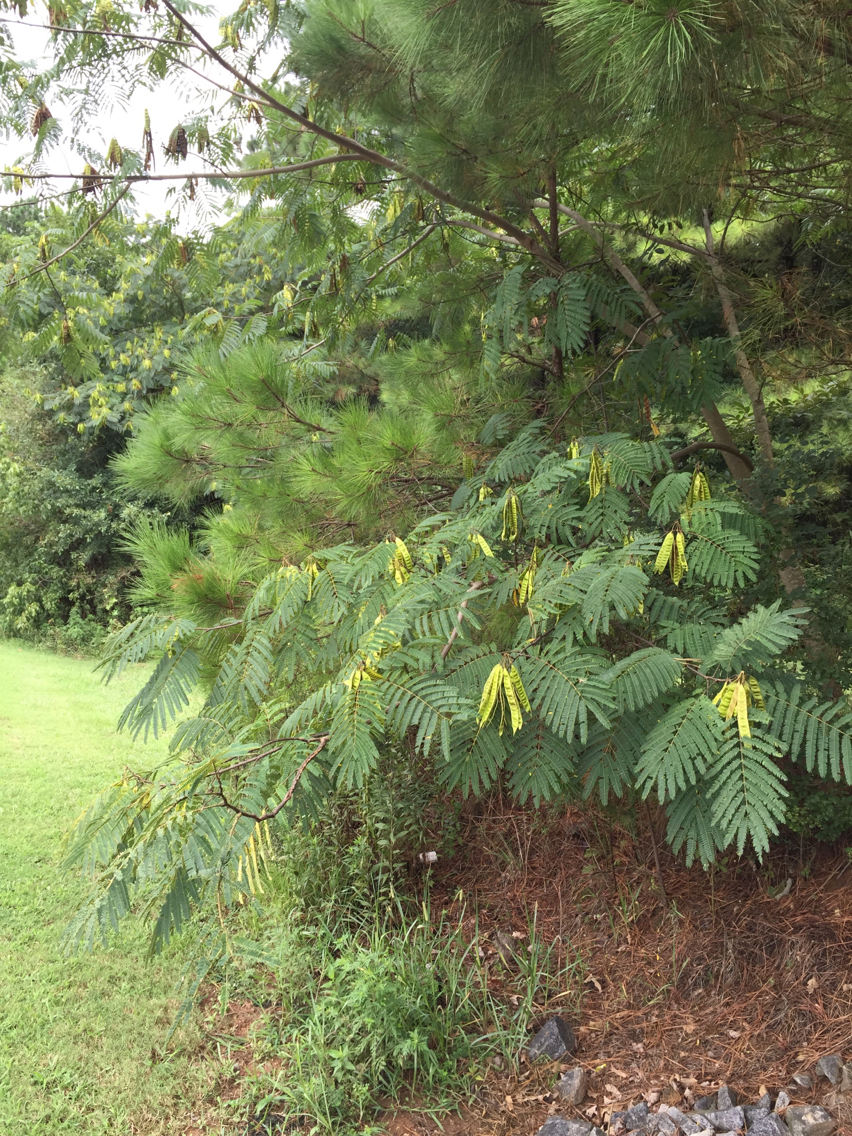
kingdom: Plantae
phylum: Tracheophyta
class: Magnoliopsida
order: Fabales
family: Fabaceae
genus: Albizia
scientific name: Albizia julibrissin
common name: Silktree
